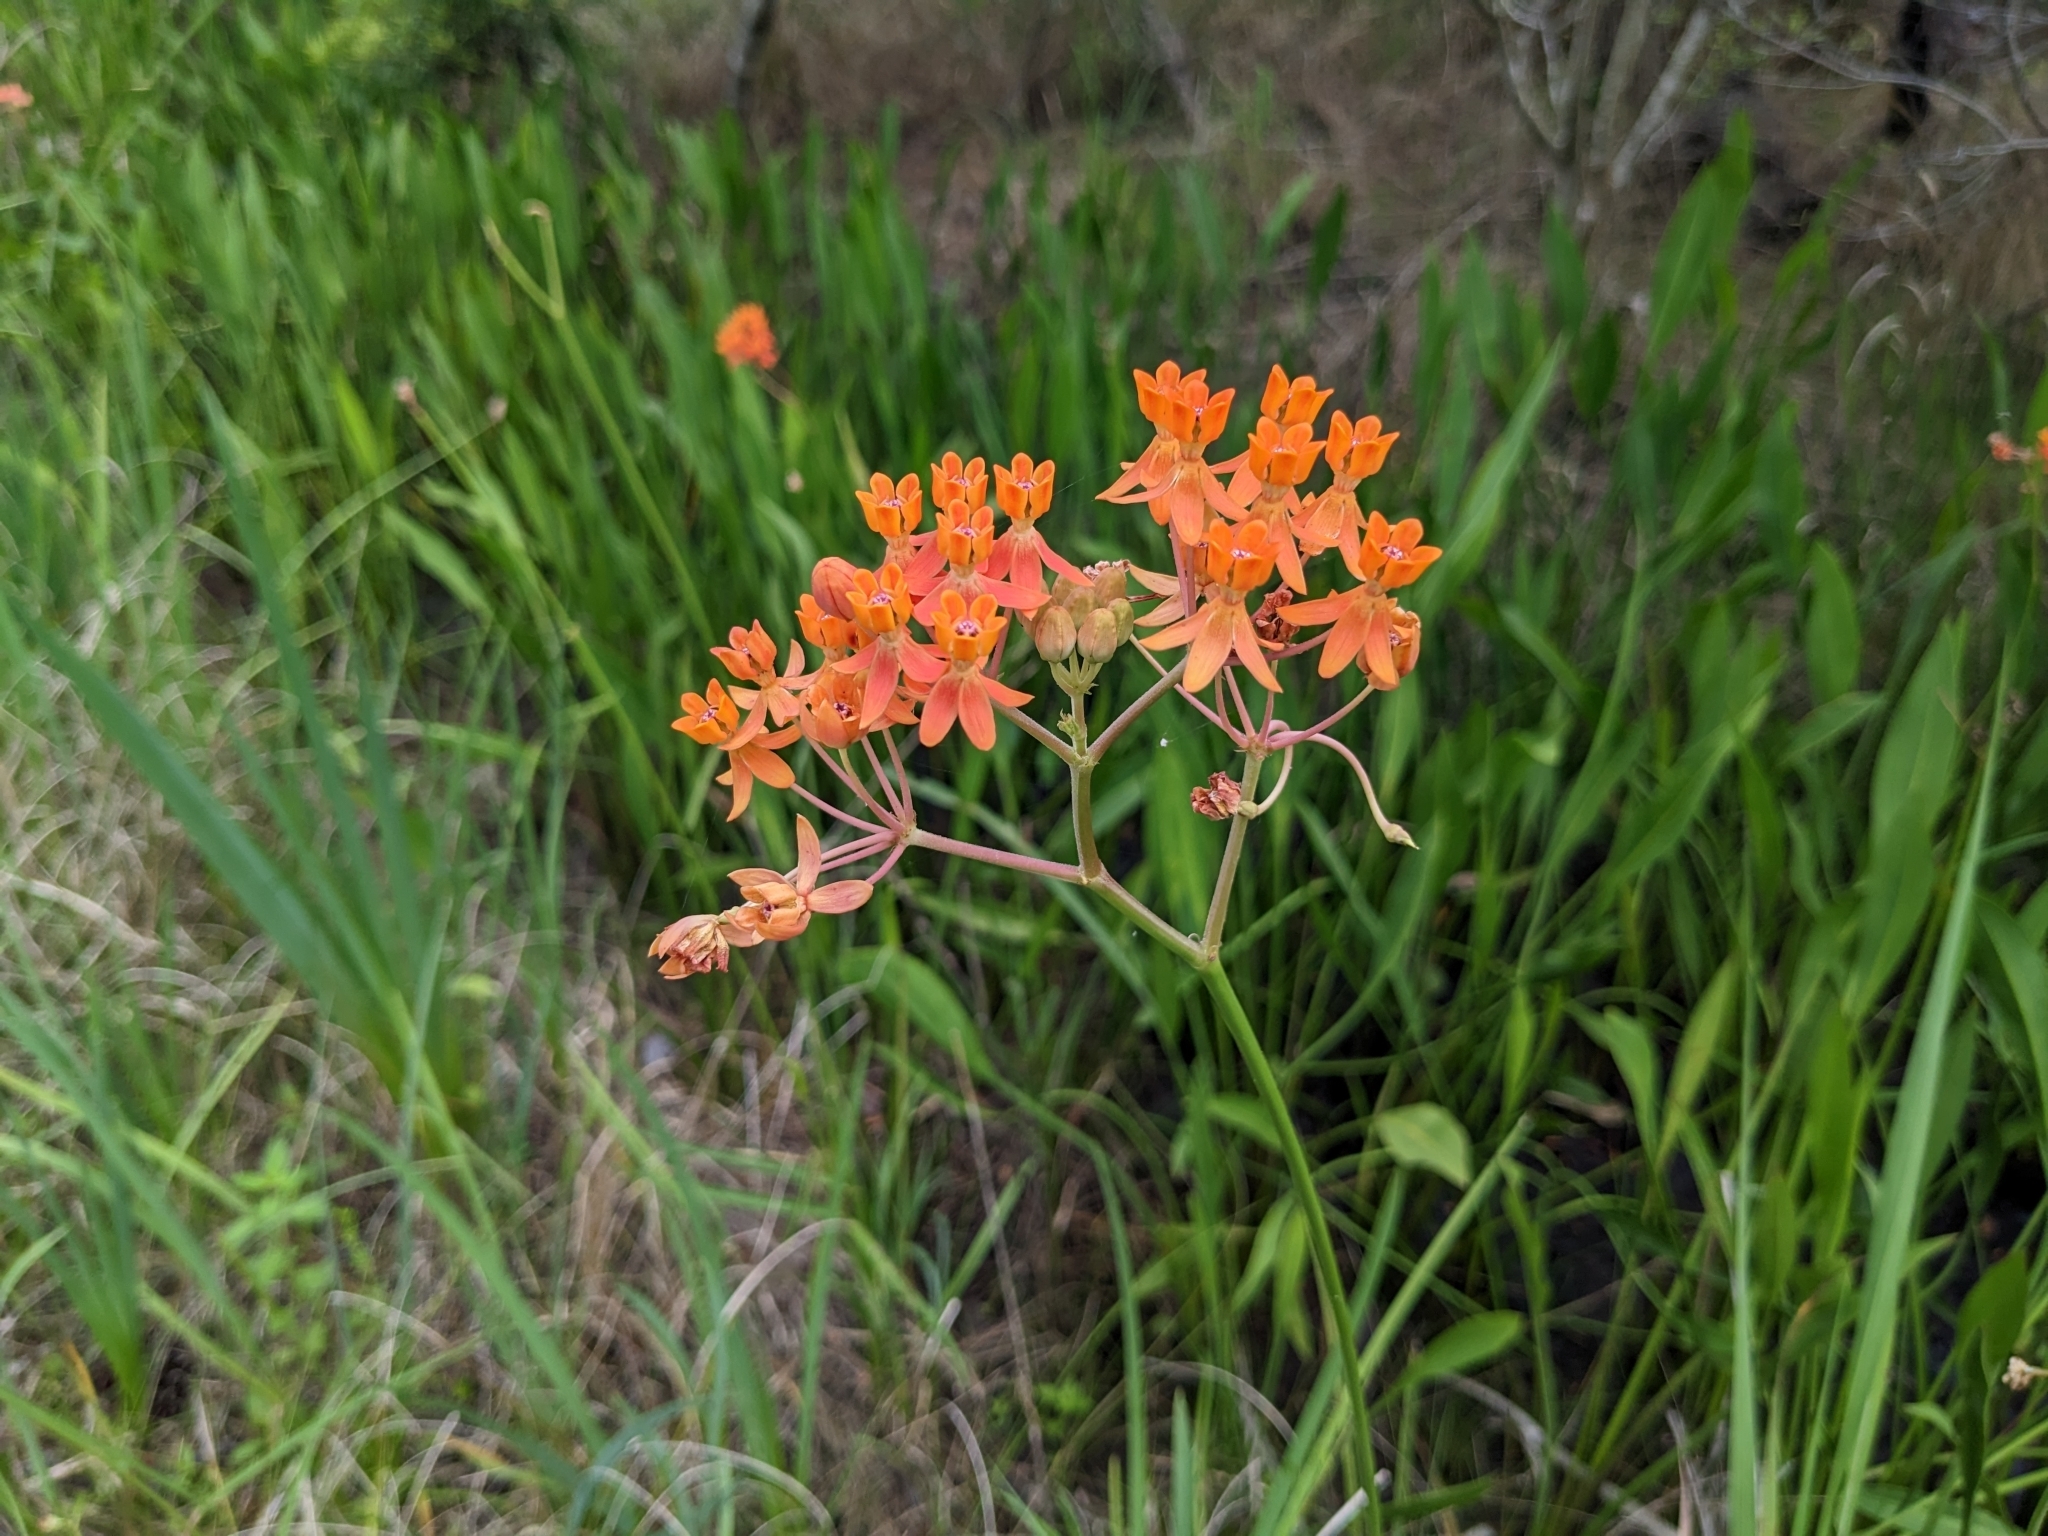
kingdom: Plantae
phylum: Tracheophyta
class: Magnoliopsida
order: Gentianales
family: Apocynaceae
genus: Asclepias
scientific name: Asclepias lanceolata
